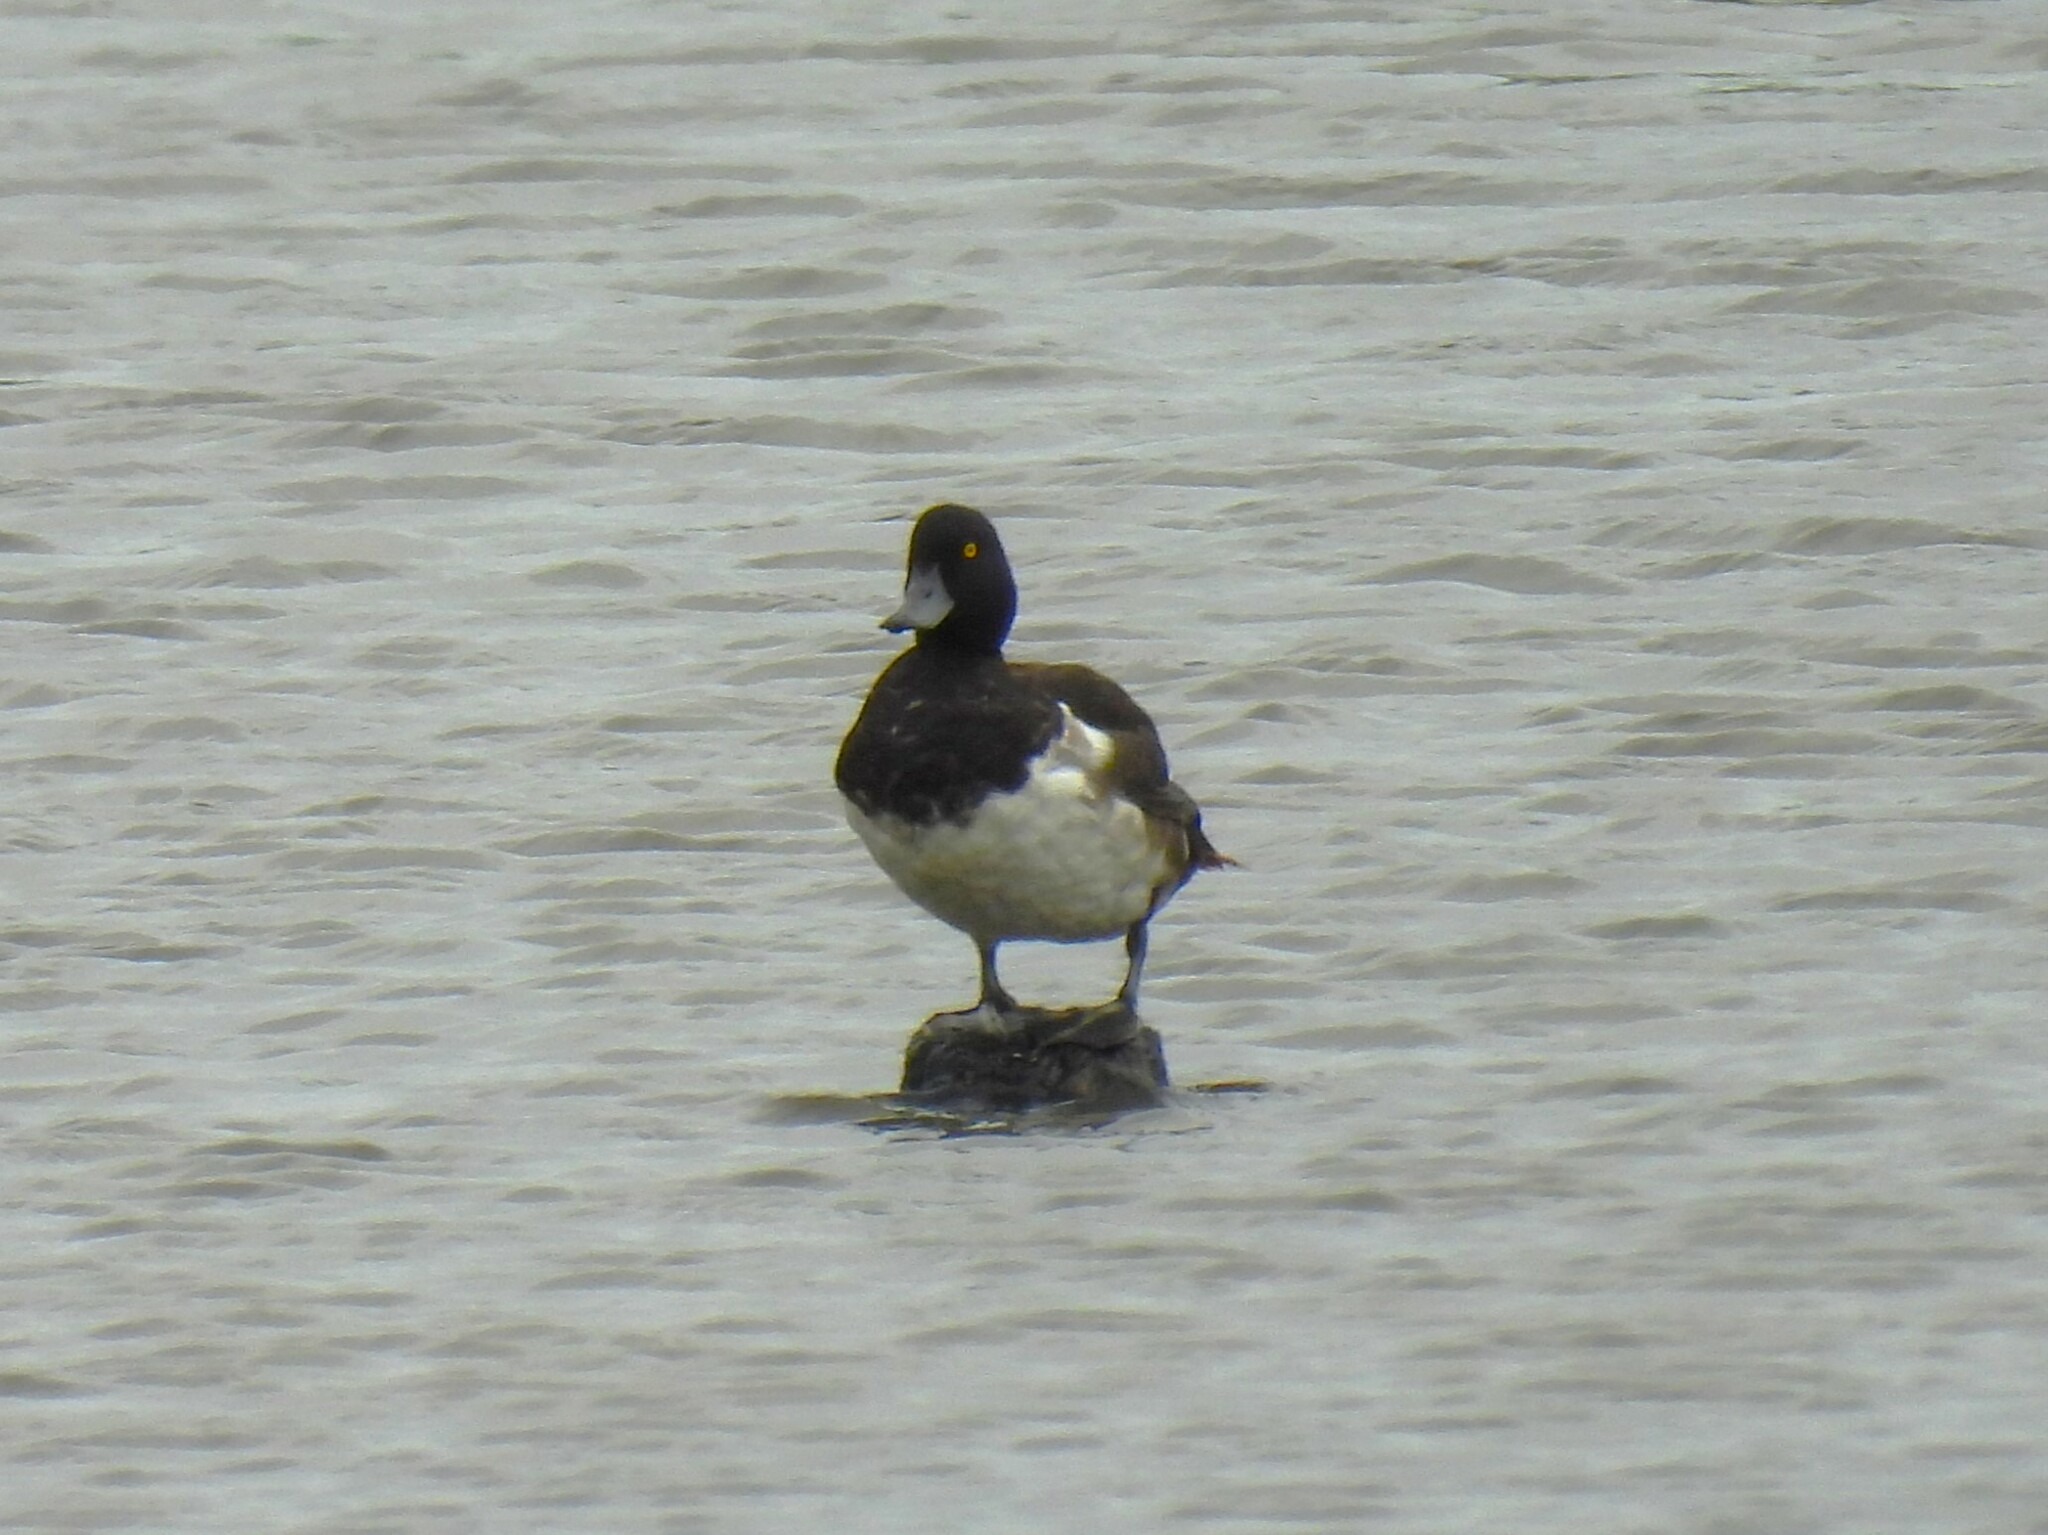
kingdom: Animalia
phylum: Chordata
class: Aves
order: Anseriformes
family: Anatidae
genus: Aythya
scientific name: Aythya fuligula
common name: Tufted duck
